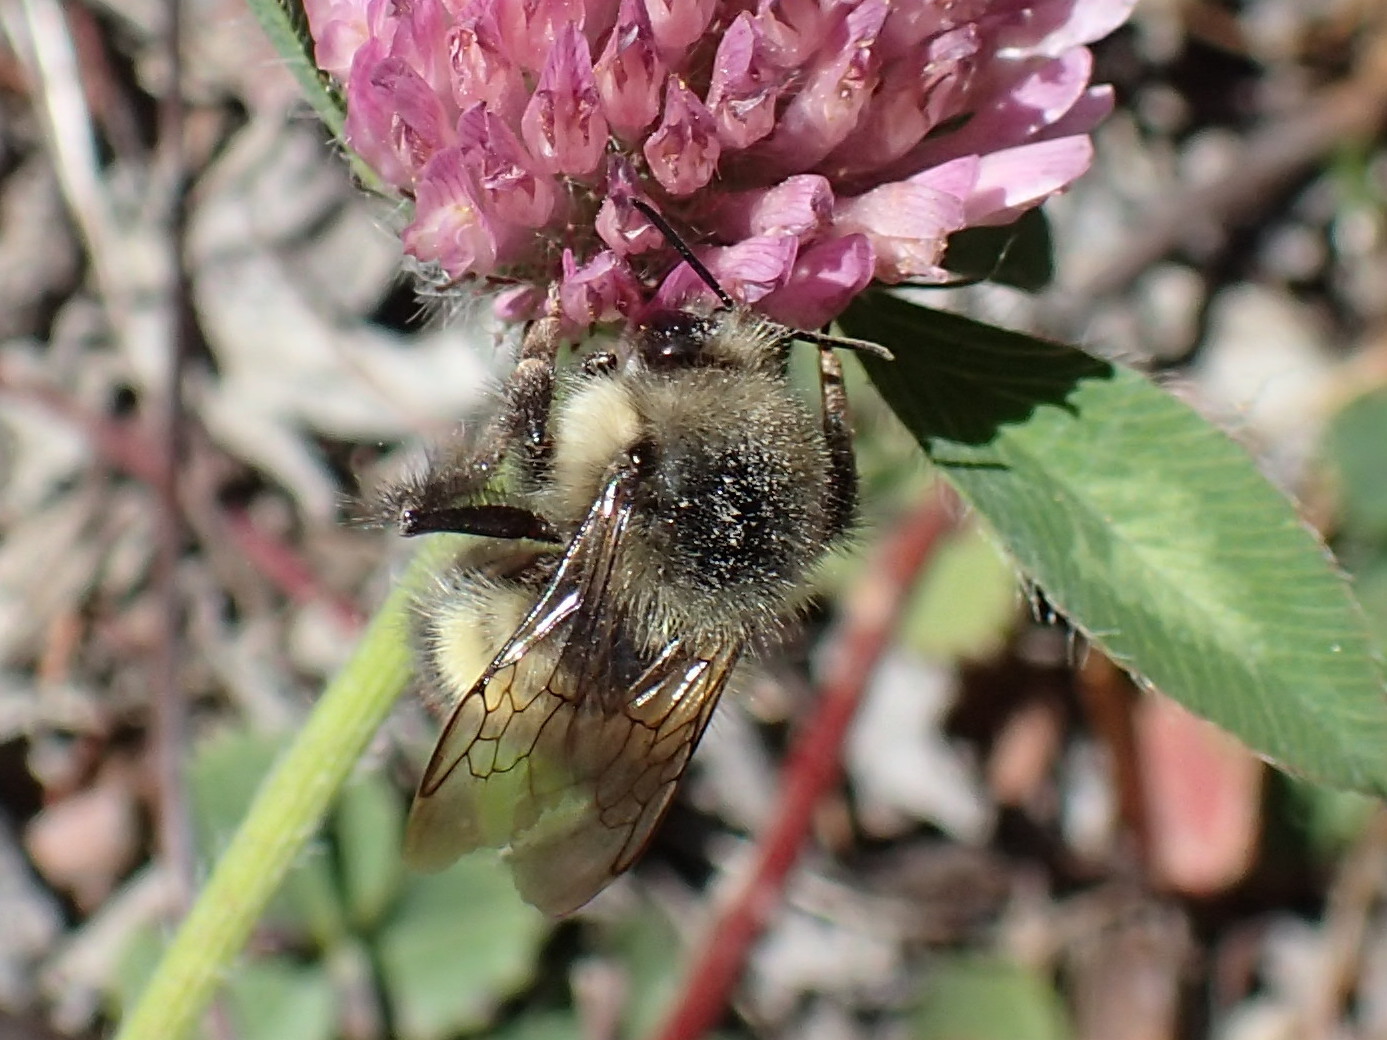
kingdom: Animalia
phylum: Arthropoda
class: Insecta
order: Hymenoptera
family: Apidae
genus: Pyrobombus
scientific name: Pyrobombus
